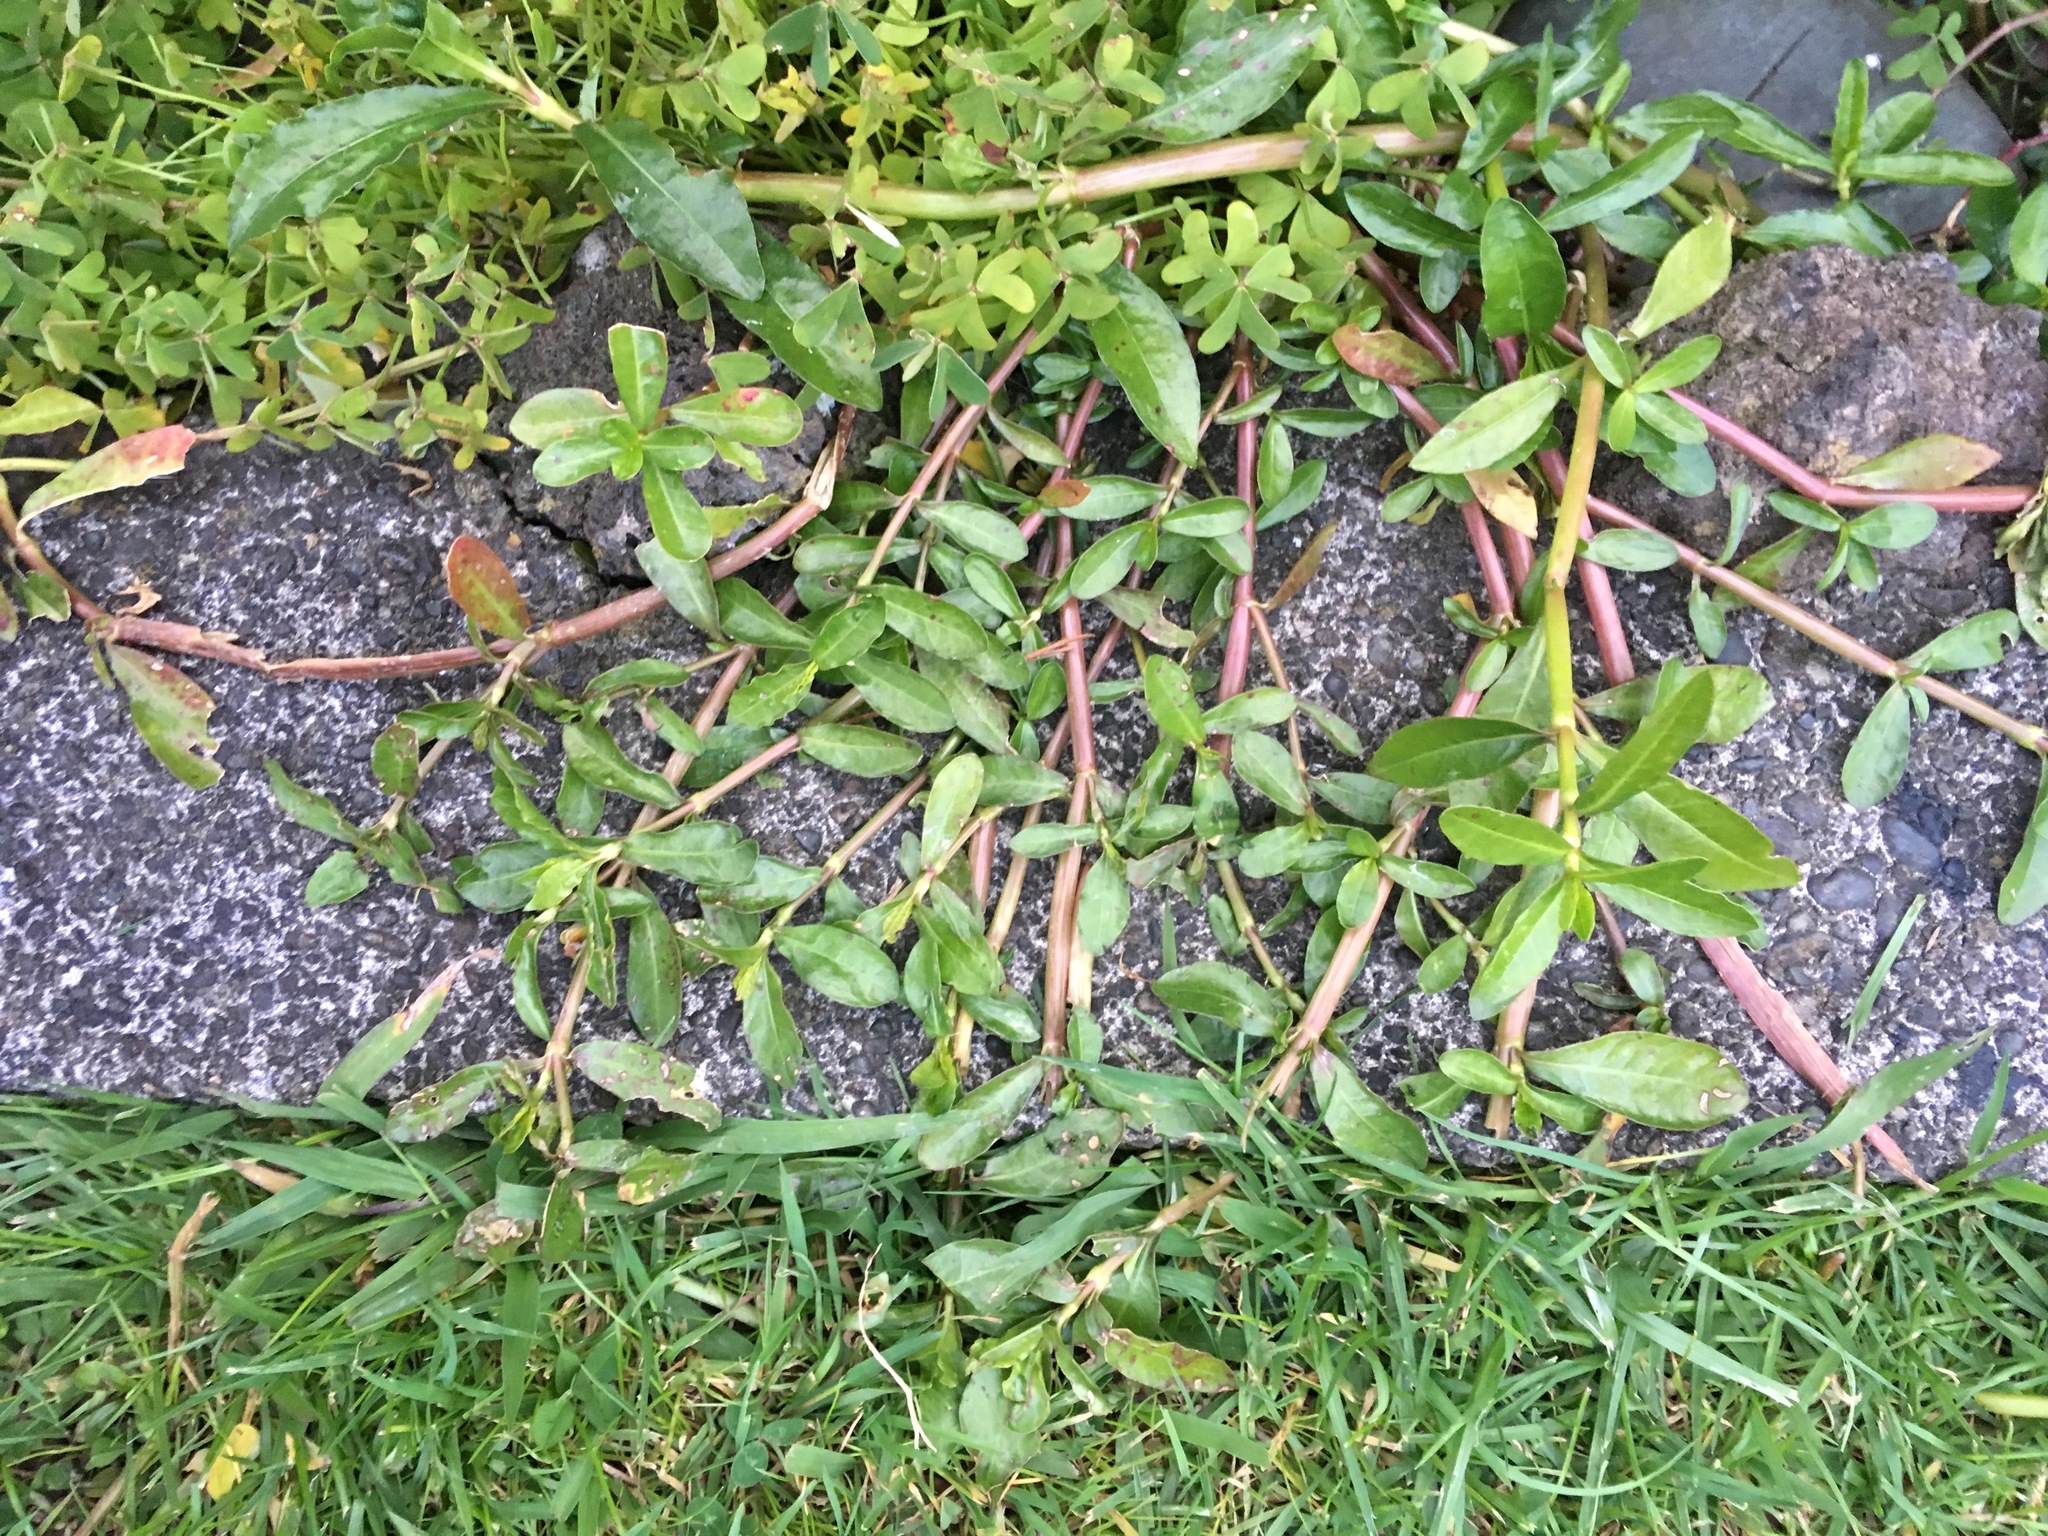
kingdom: Plantae
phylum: Tracheophyta
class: Magnoliopsida
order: Caryophyllales
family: Amaranthaceae
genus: Alternanthera
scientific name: Alternanthera philoxeroides
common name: Alligatorweed
